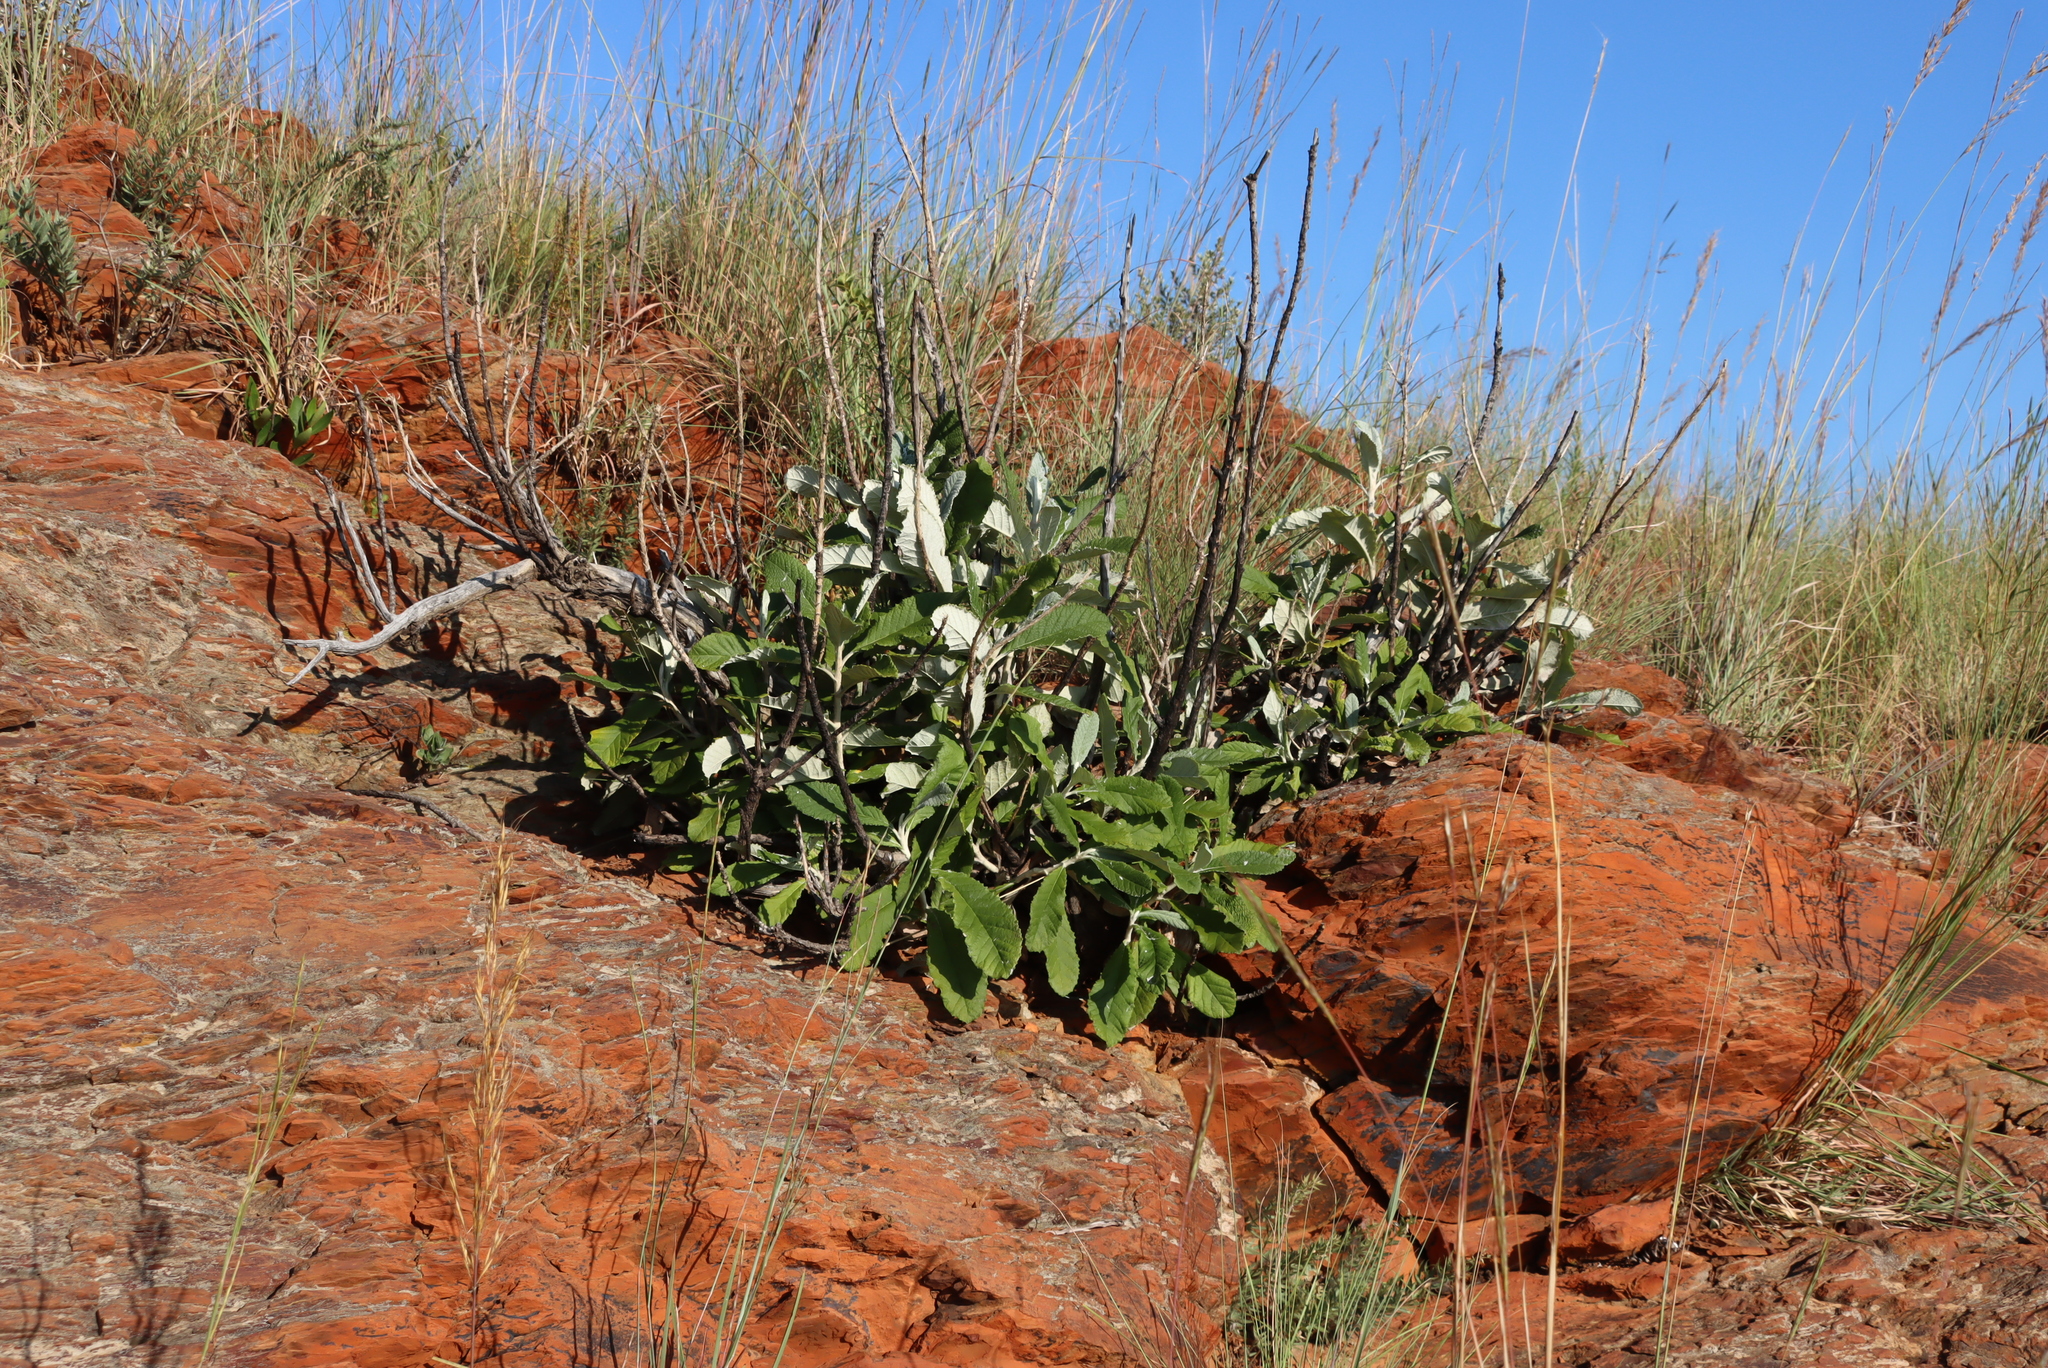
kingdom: Plantae
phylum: Tracheophyta
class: Magnoliopsida
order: Asterales
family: Asteraceae
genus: Brachylaena
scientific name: Brachylaena discolor
